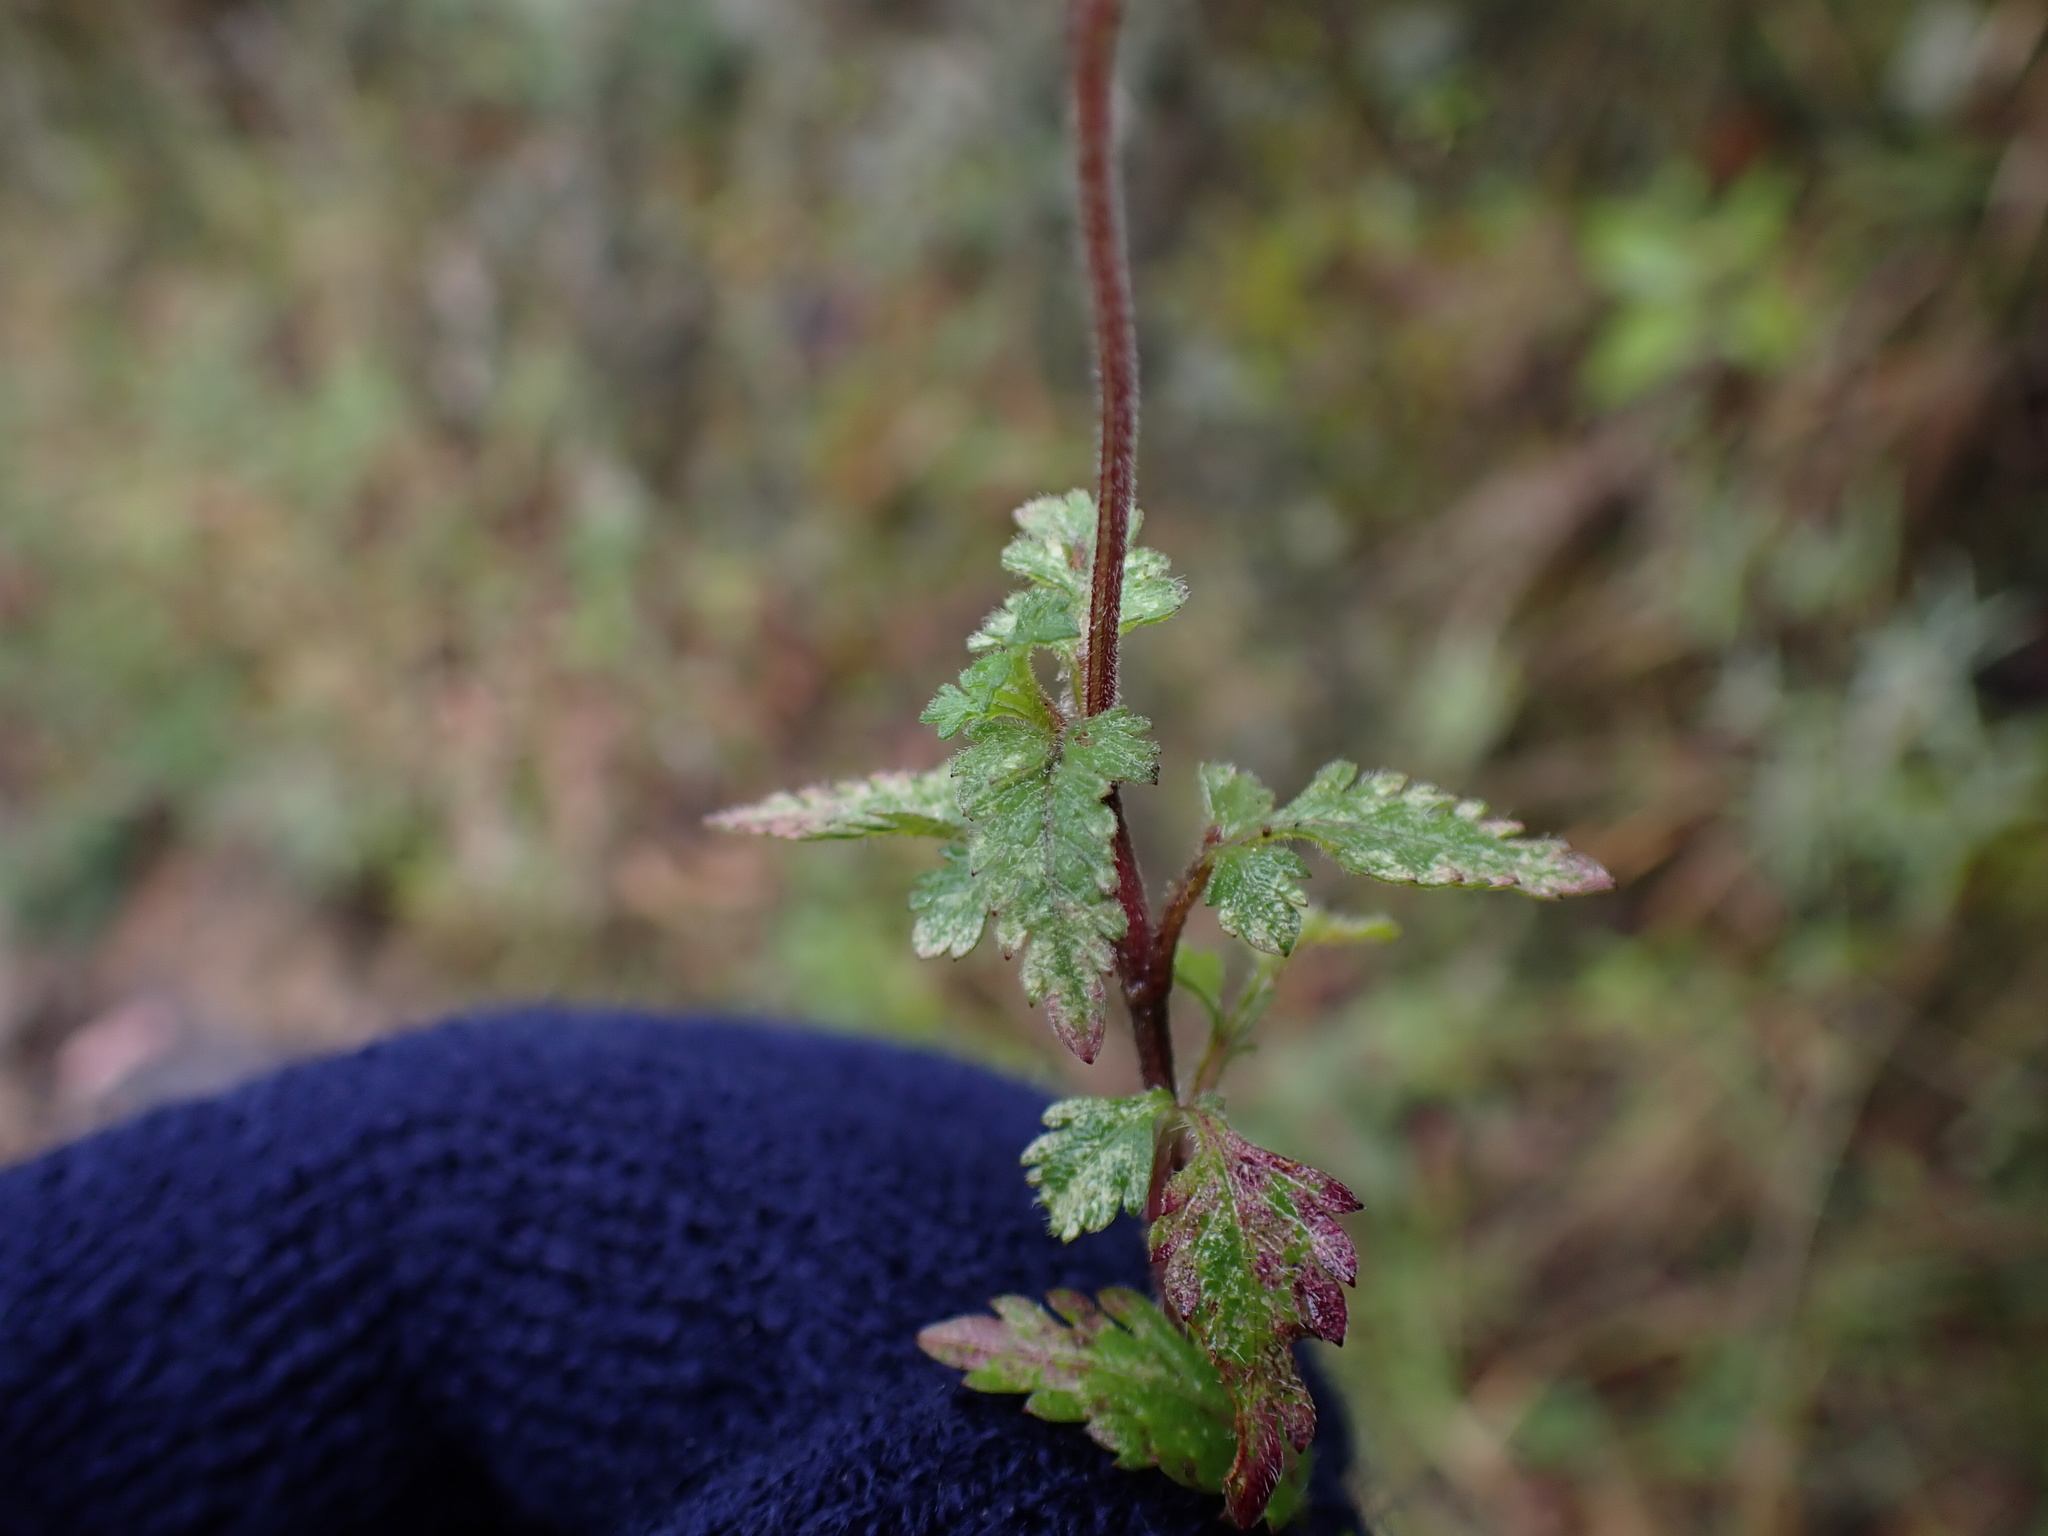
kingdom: Plantae
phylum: Tracheophyta
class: Magnoliopsida
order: Asterales
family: Asteraceae
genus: Bidens
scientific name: Bidens andicola
